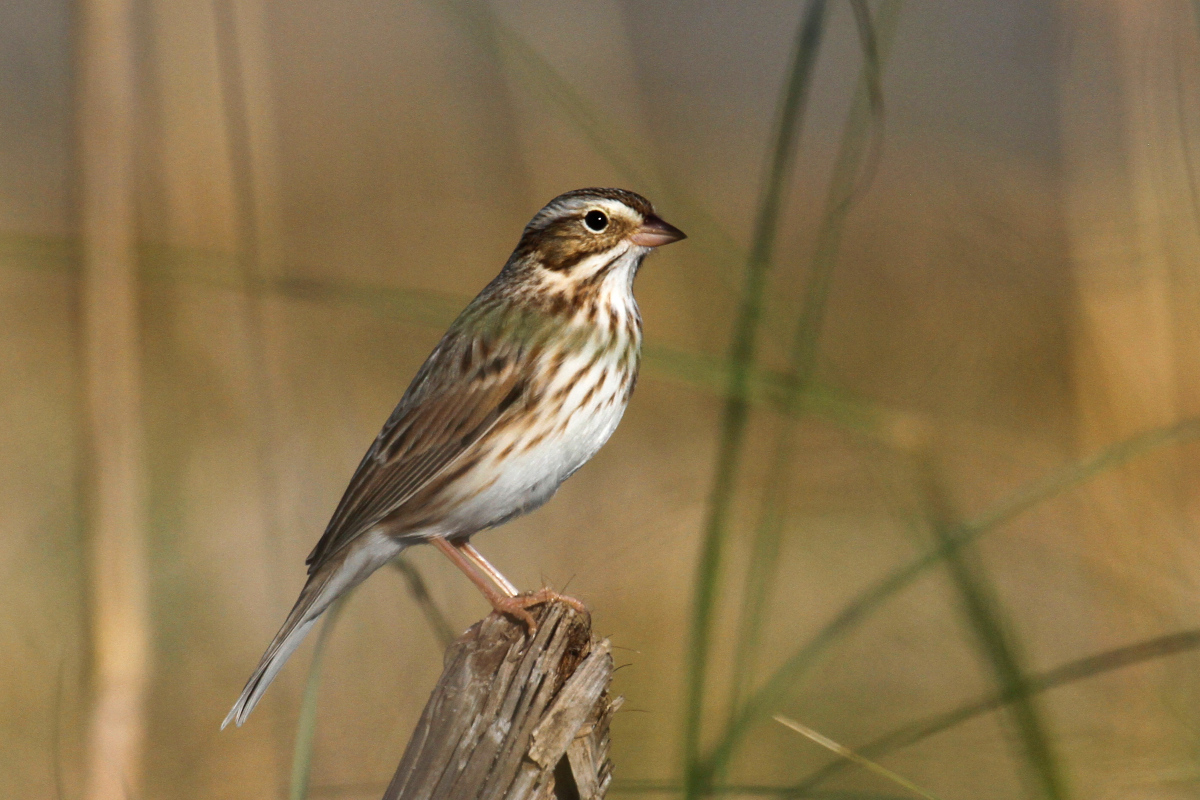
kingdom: Animalia
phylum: Chordata
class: Aves
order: Passeriformes
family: Passerellidae
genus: Passerculus
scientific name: Passerculus sandwichensis
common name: Savannah sparrow
